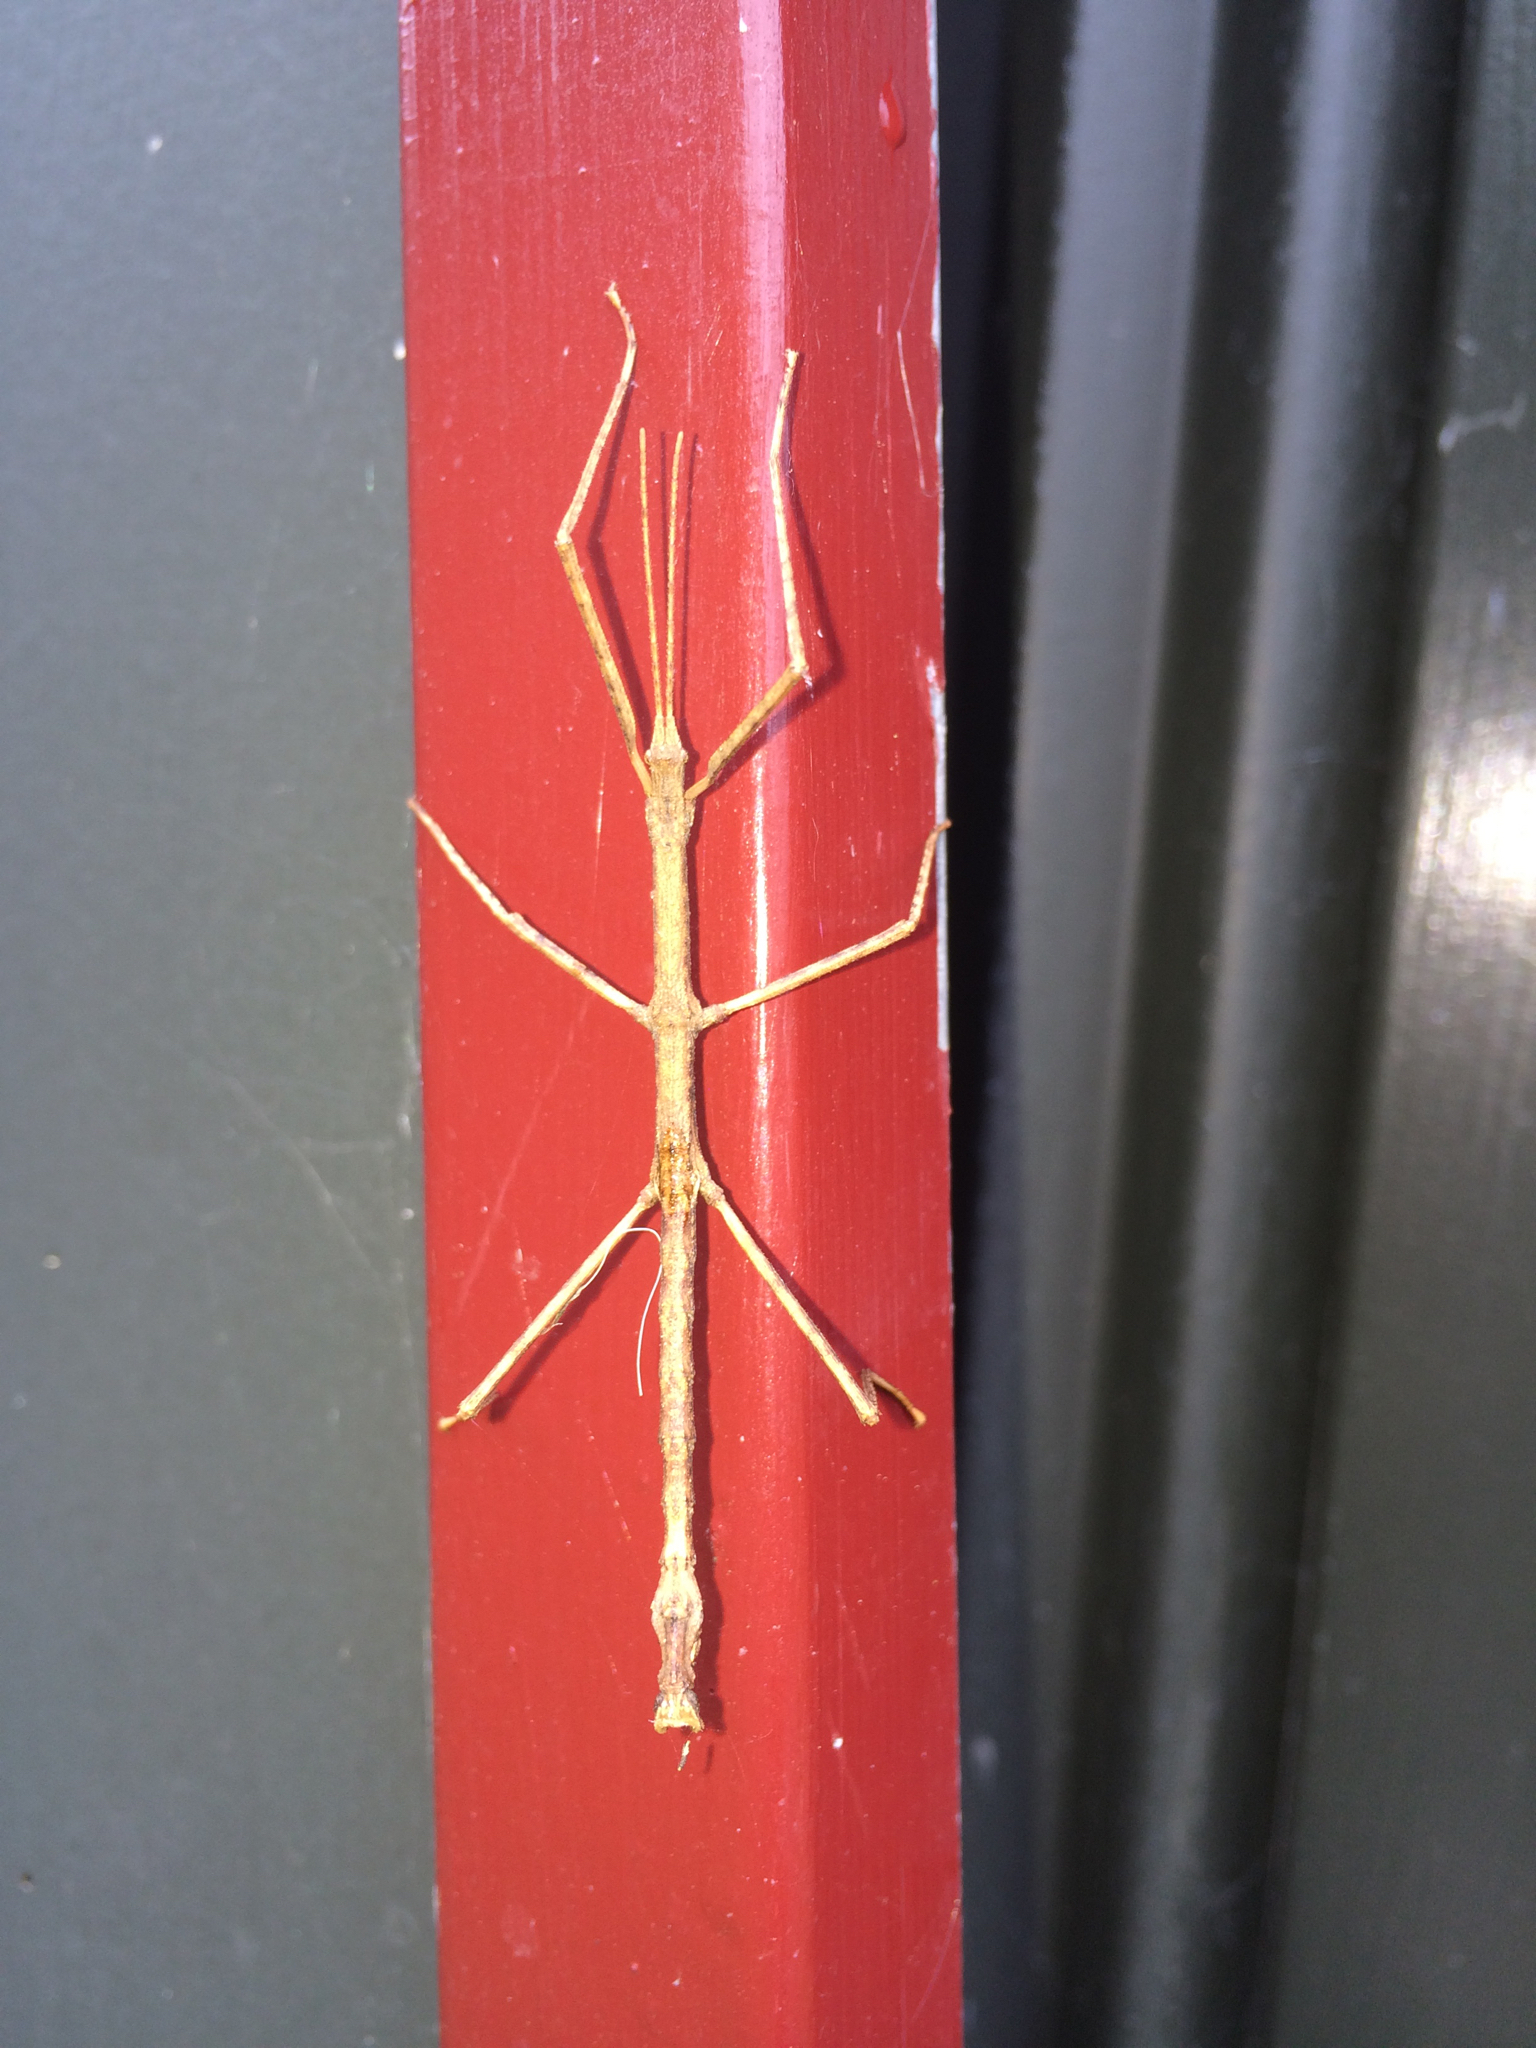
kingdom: Animalia
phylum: Arthropoda
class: Insecta
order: Phasmida
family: Phasmatidae
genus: Niveaphasma
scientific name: Niveaphasma annulatum
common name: Hutton's stick insect
